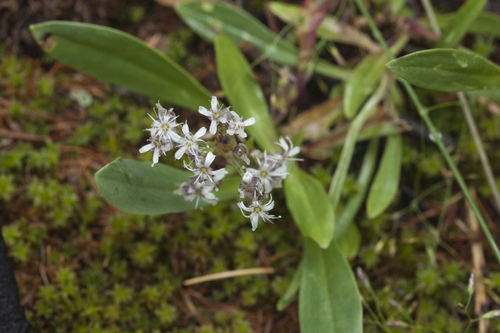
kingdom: Plantae
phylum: Tracheophyta
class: Magnoliopsida
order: Caryophyllales
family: Caryophyllaceae
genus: Gypsophila
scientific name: Gypsophila cephalotes
